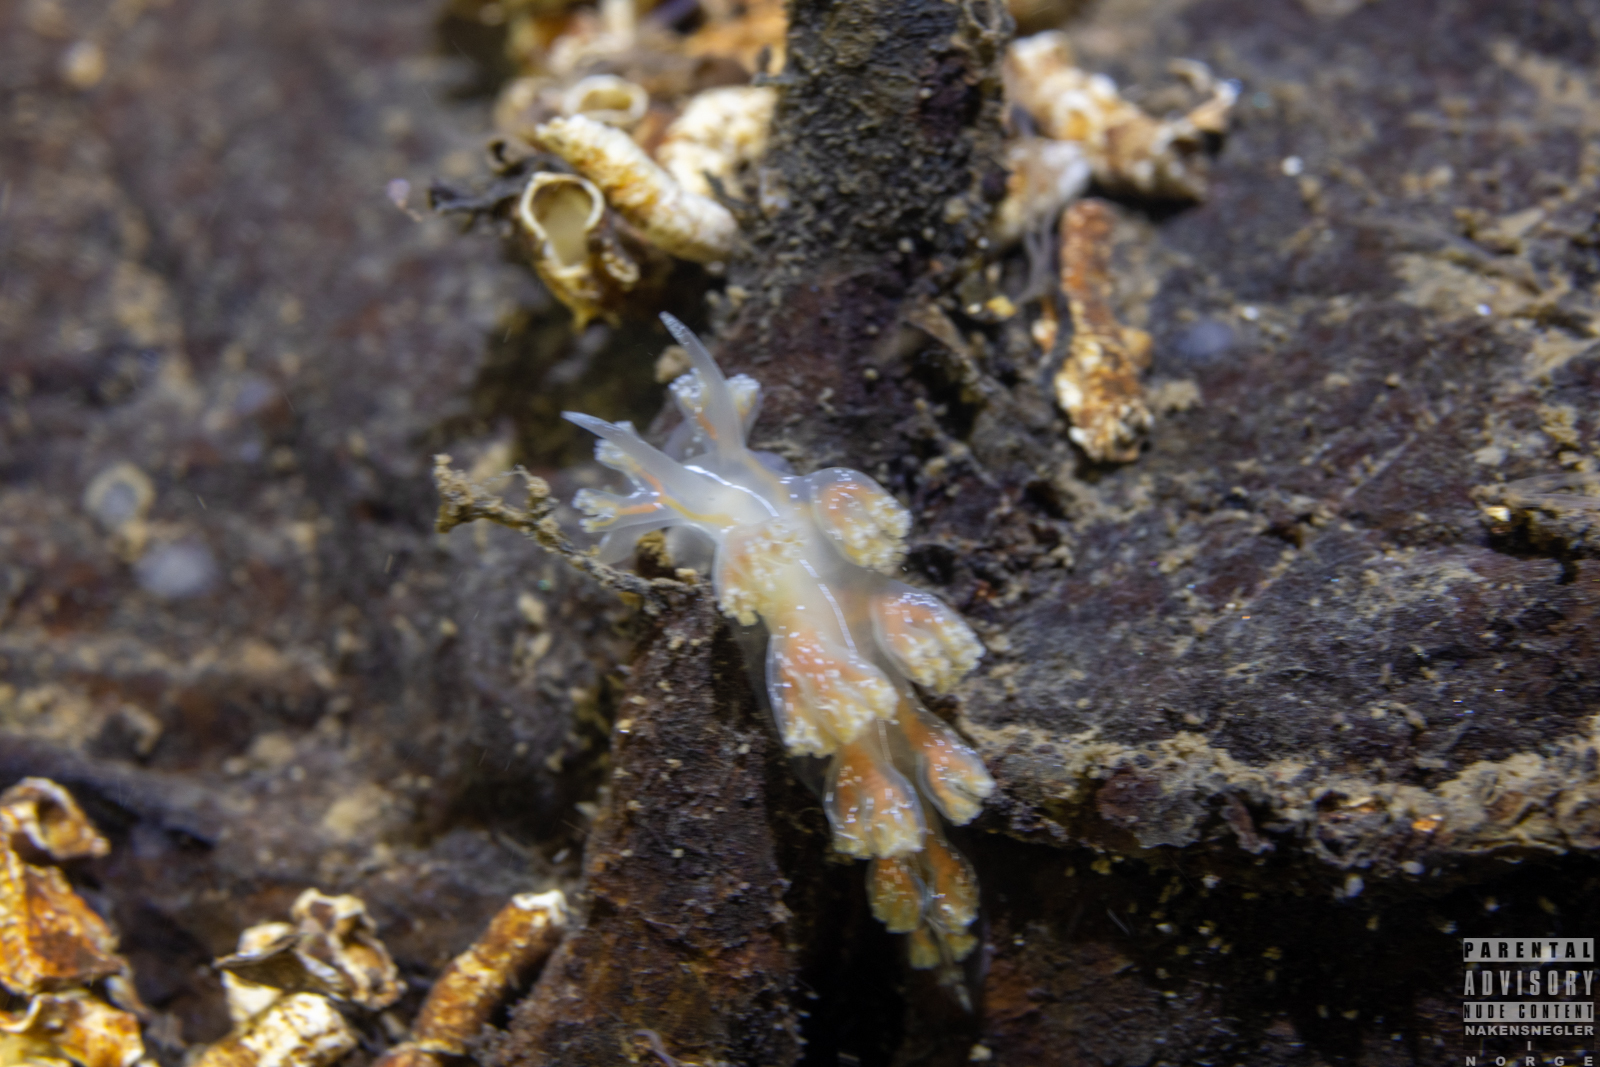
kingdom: Animalia
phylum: Mollusca
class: Gastropoda
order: Nudibranchia
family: Heroidae
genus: Hero
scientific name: Hero formosa
